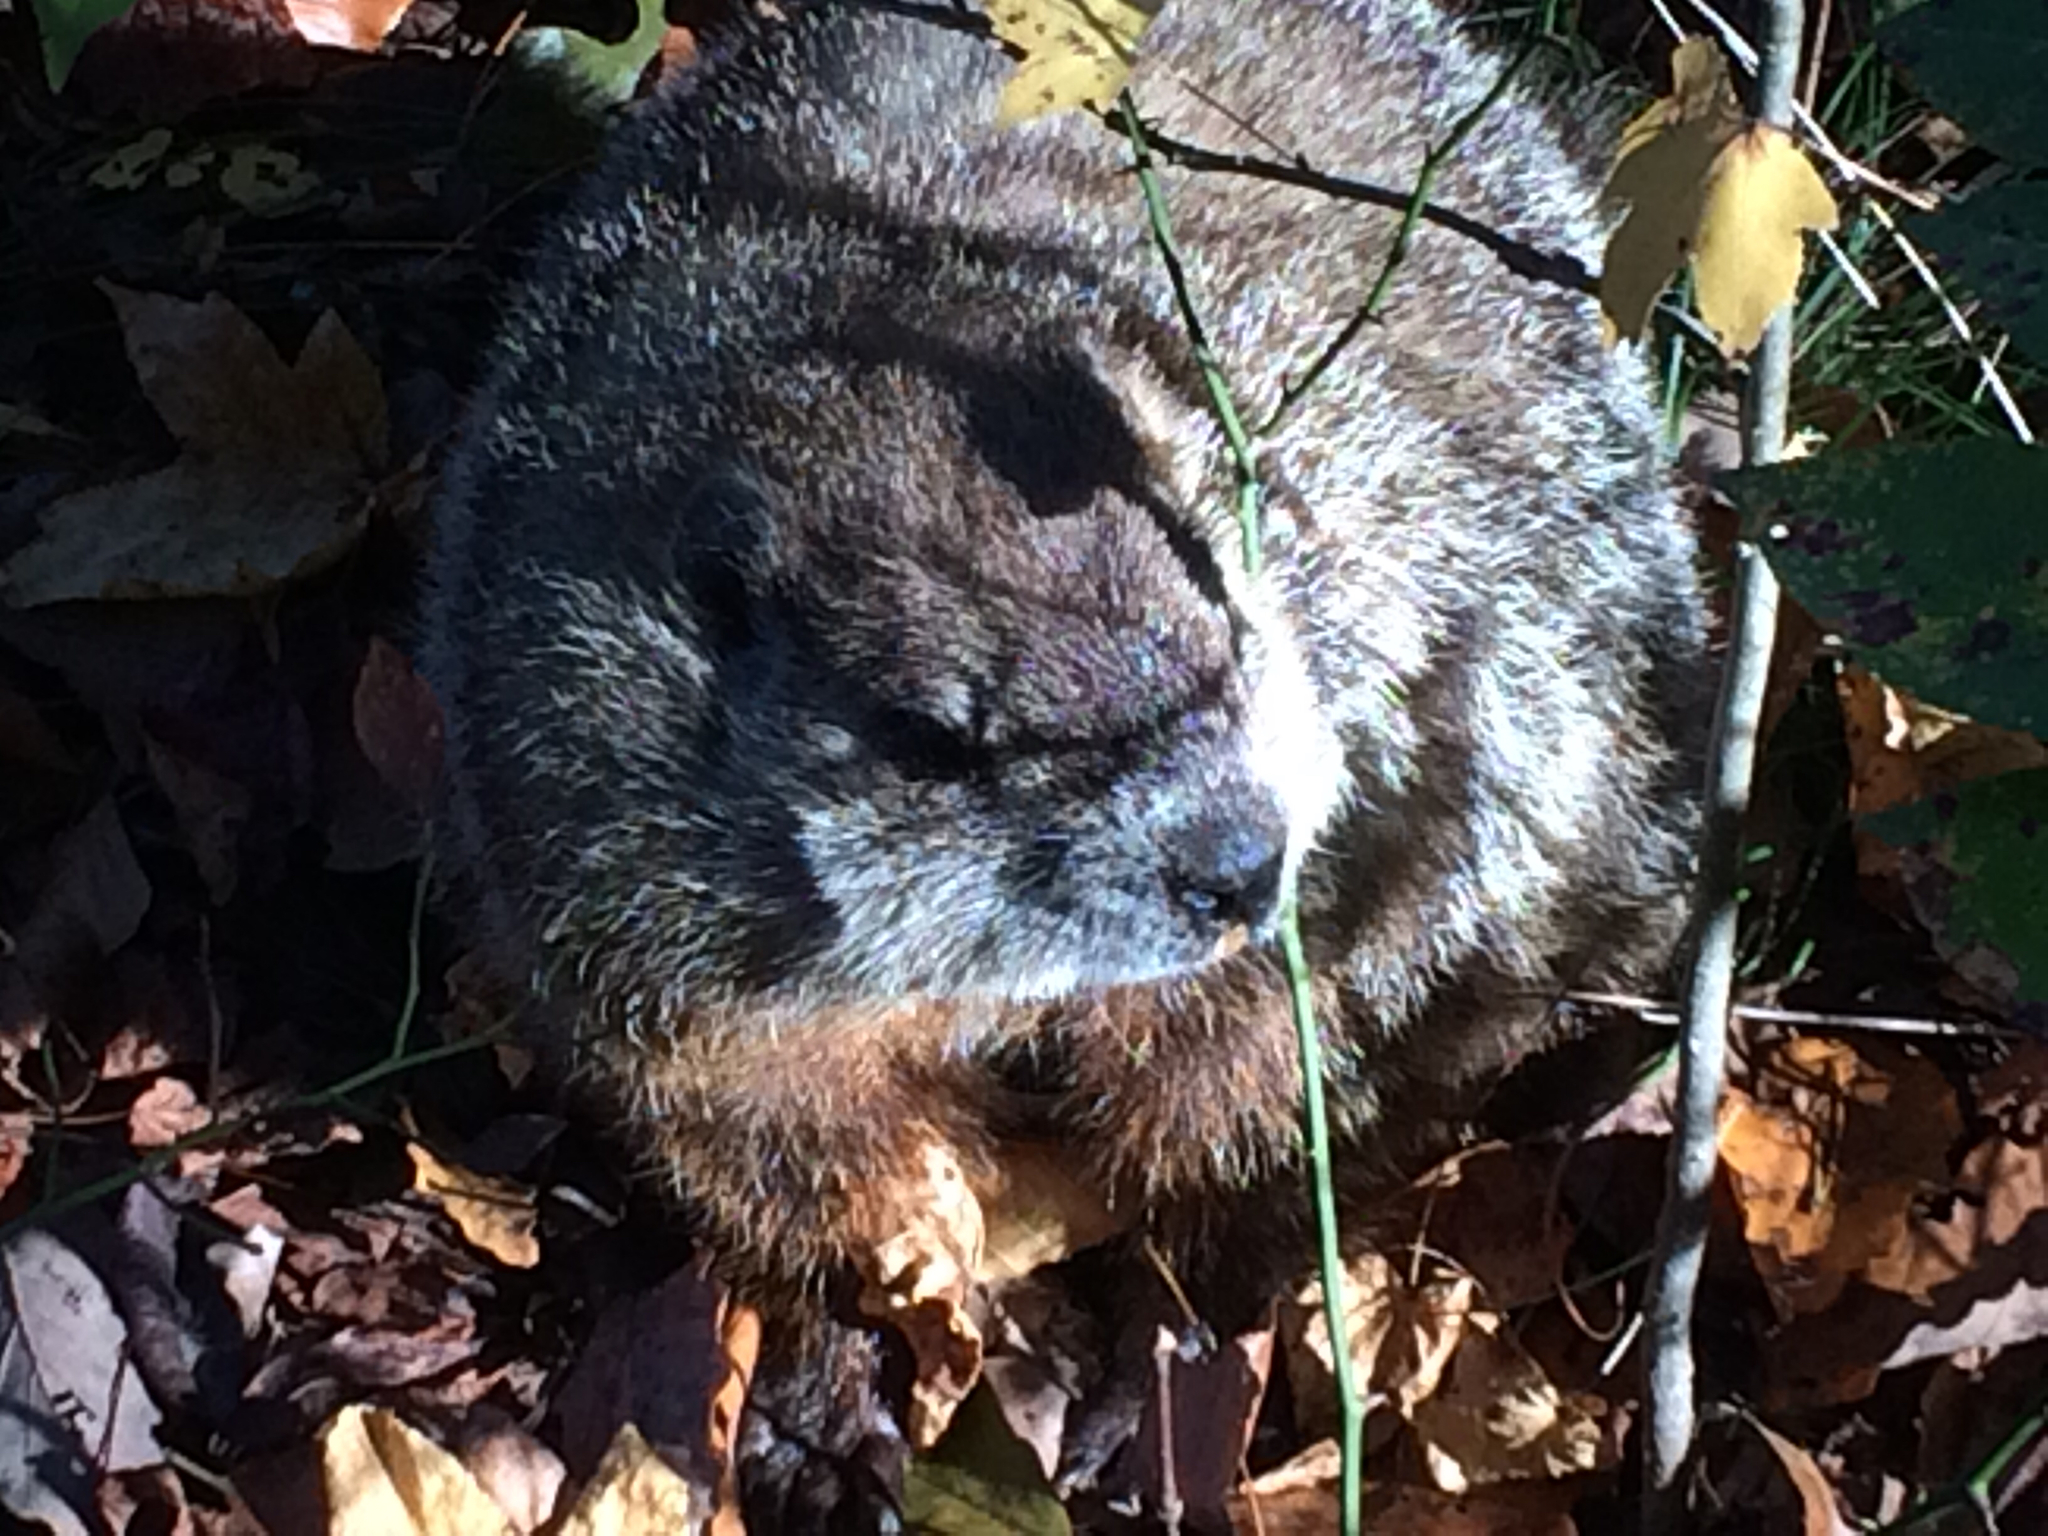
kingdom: Animalia
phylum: Chordata
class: Mammalia
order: Rodentia
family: Sciuridae
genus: Marmota
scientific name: Marmota monax
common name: Groundhog
